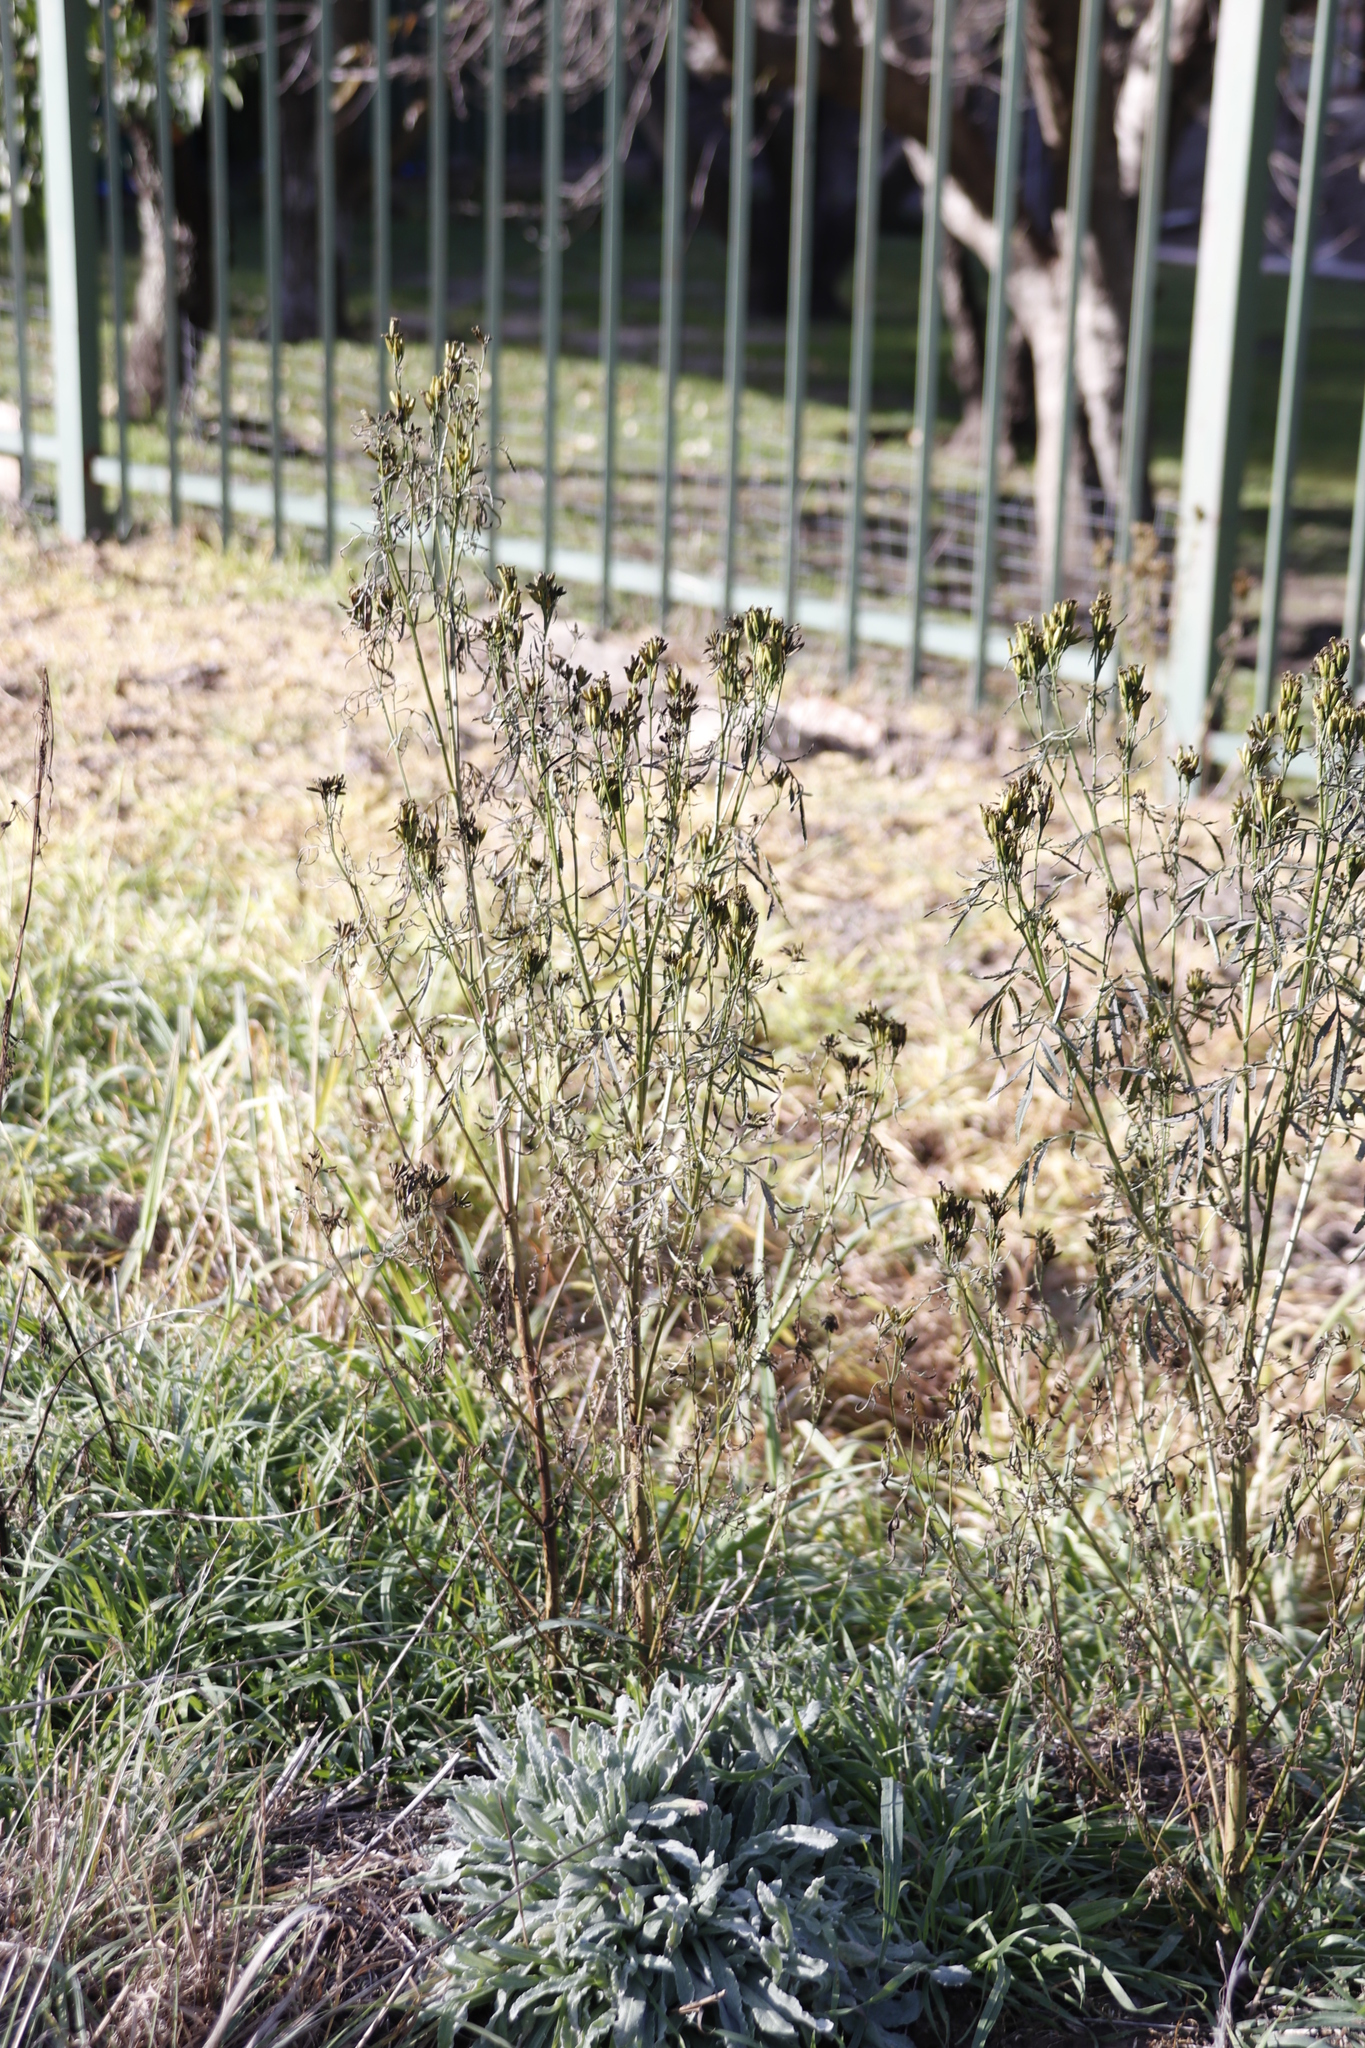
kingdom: Plantae
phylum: Tracheophyta
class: Magnoliopsida
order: Asterales
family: Asteraceae
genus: Tagetes
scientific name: Tagetes minuta
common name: Muster john henry
